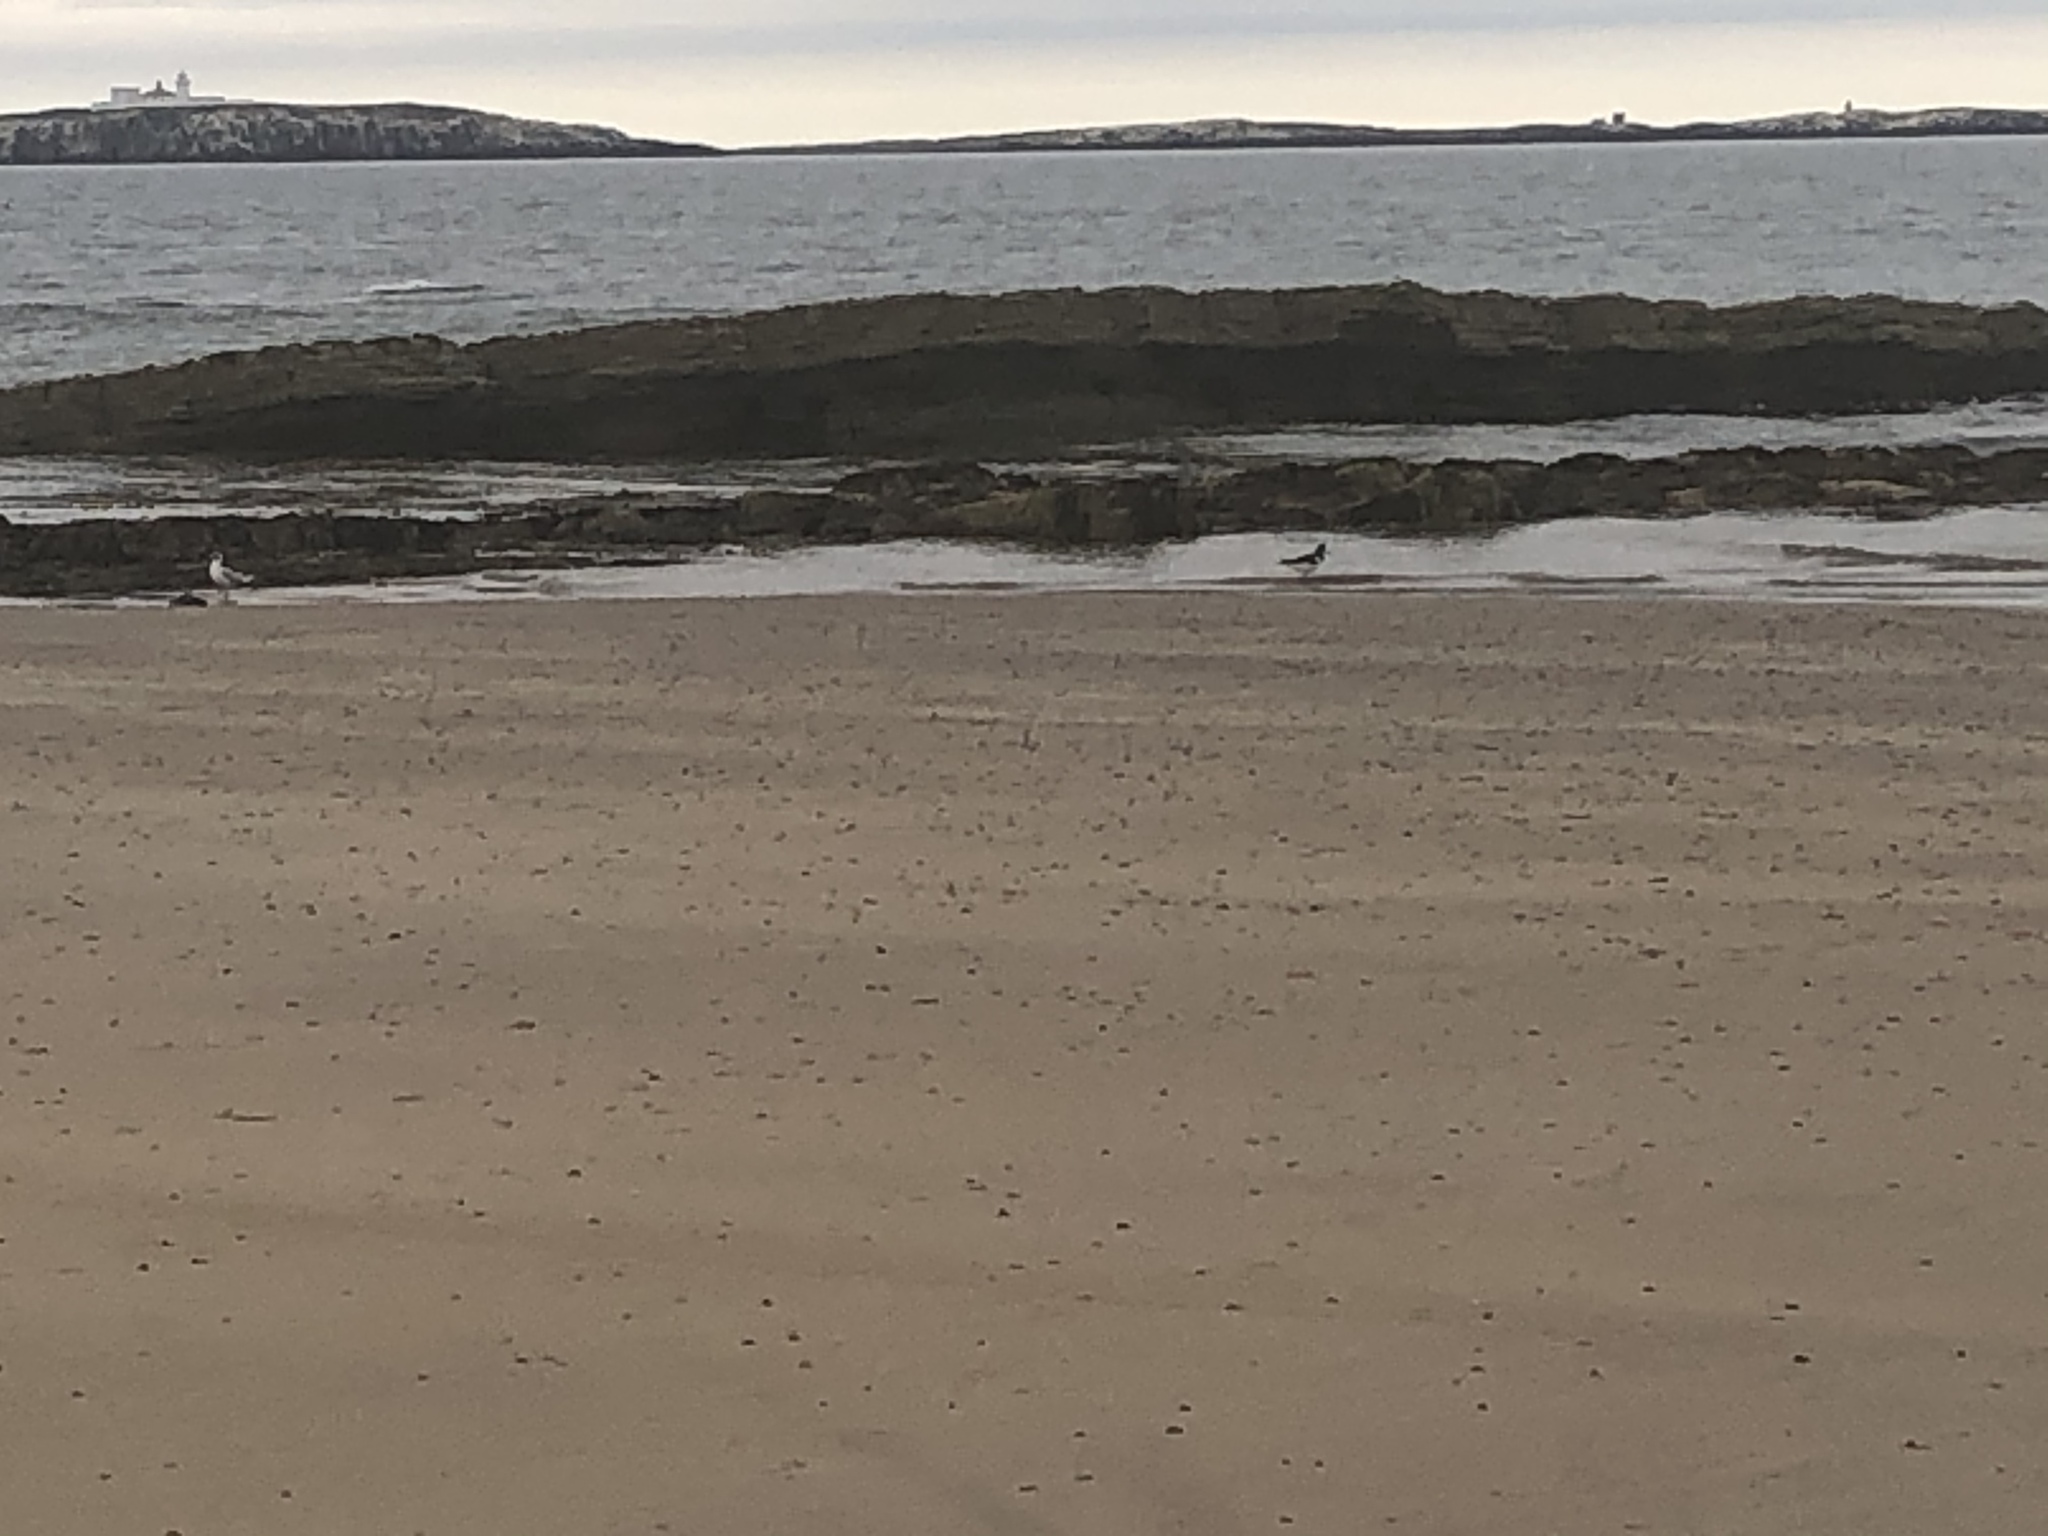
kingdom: Animalia
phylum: Chordata
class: Aves
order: Charadriiformes
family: Haematopodidae
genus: Haematopus
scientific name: Haematopus ostralegus
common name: Eurasian oystercatcher
